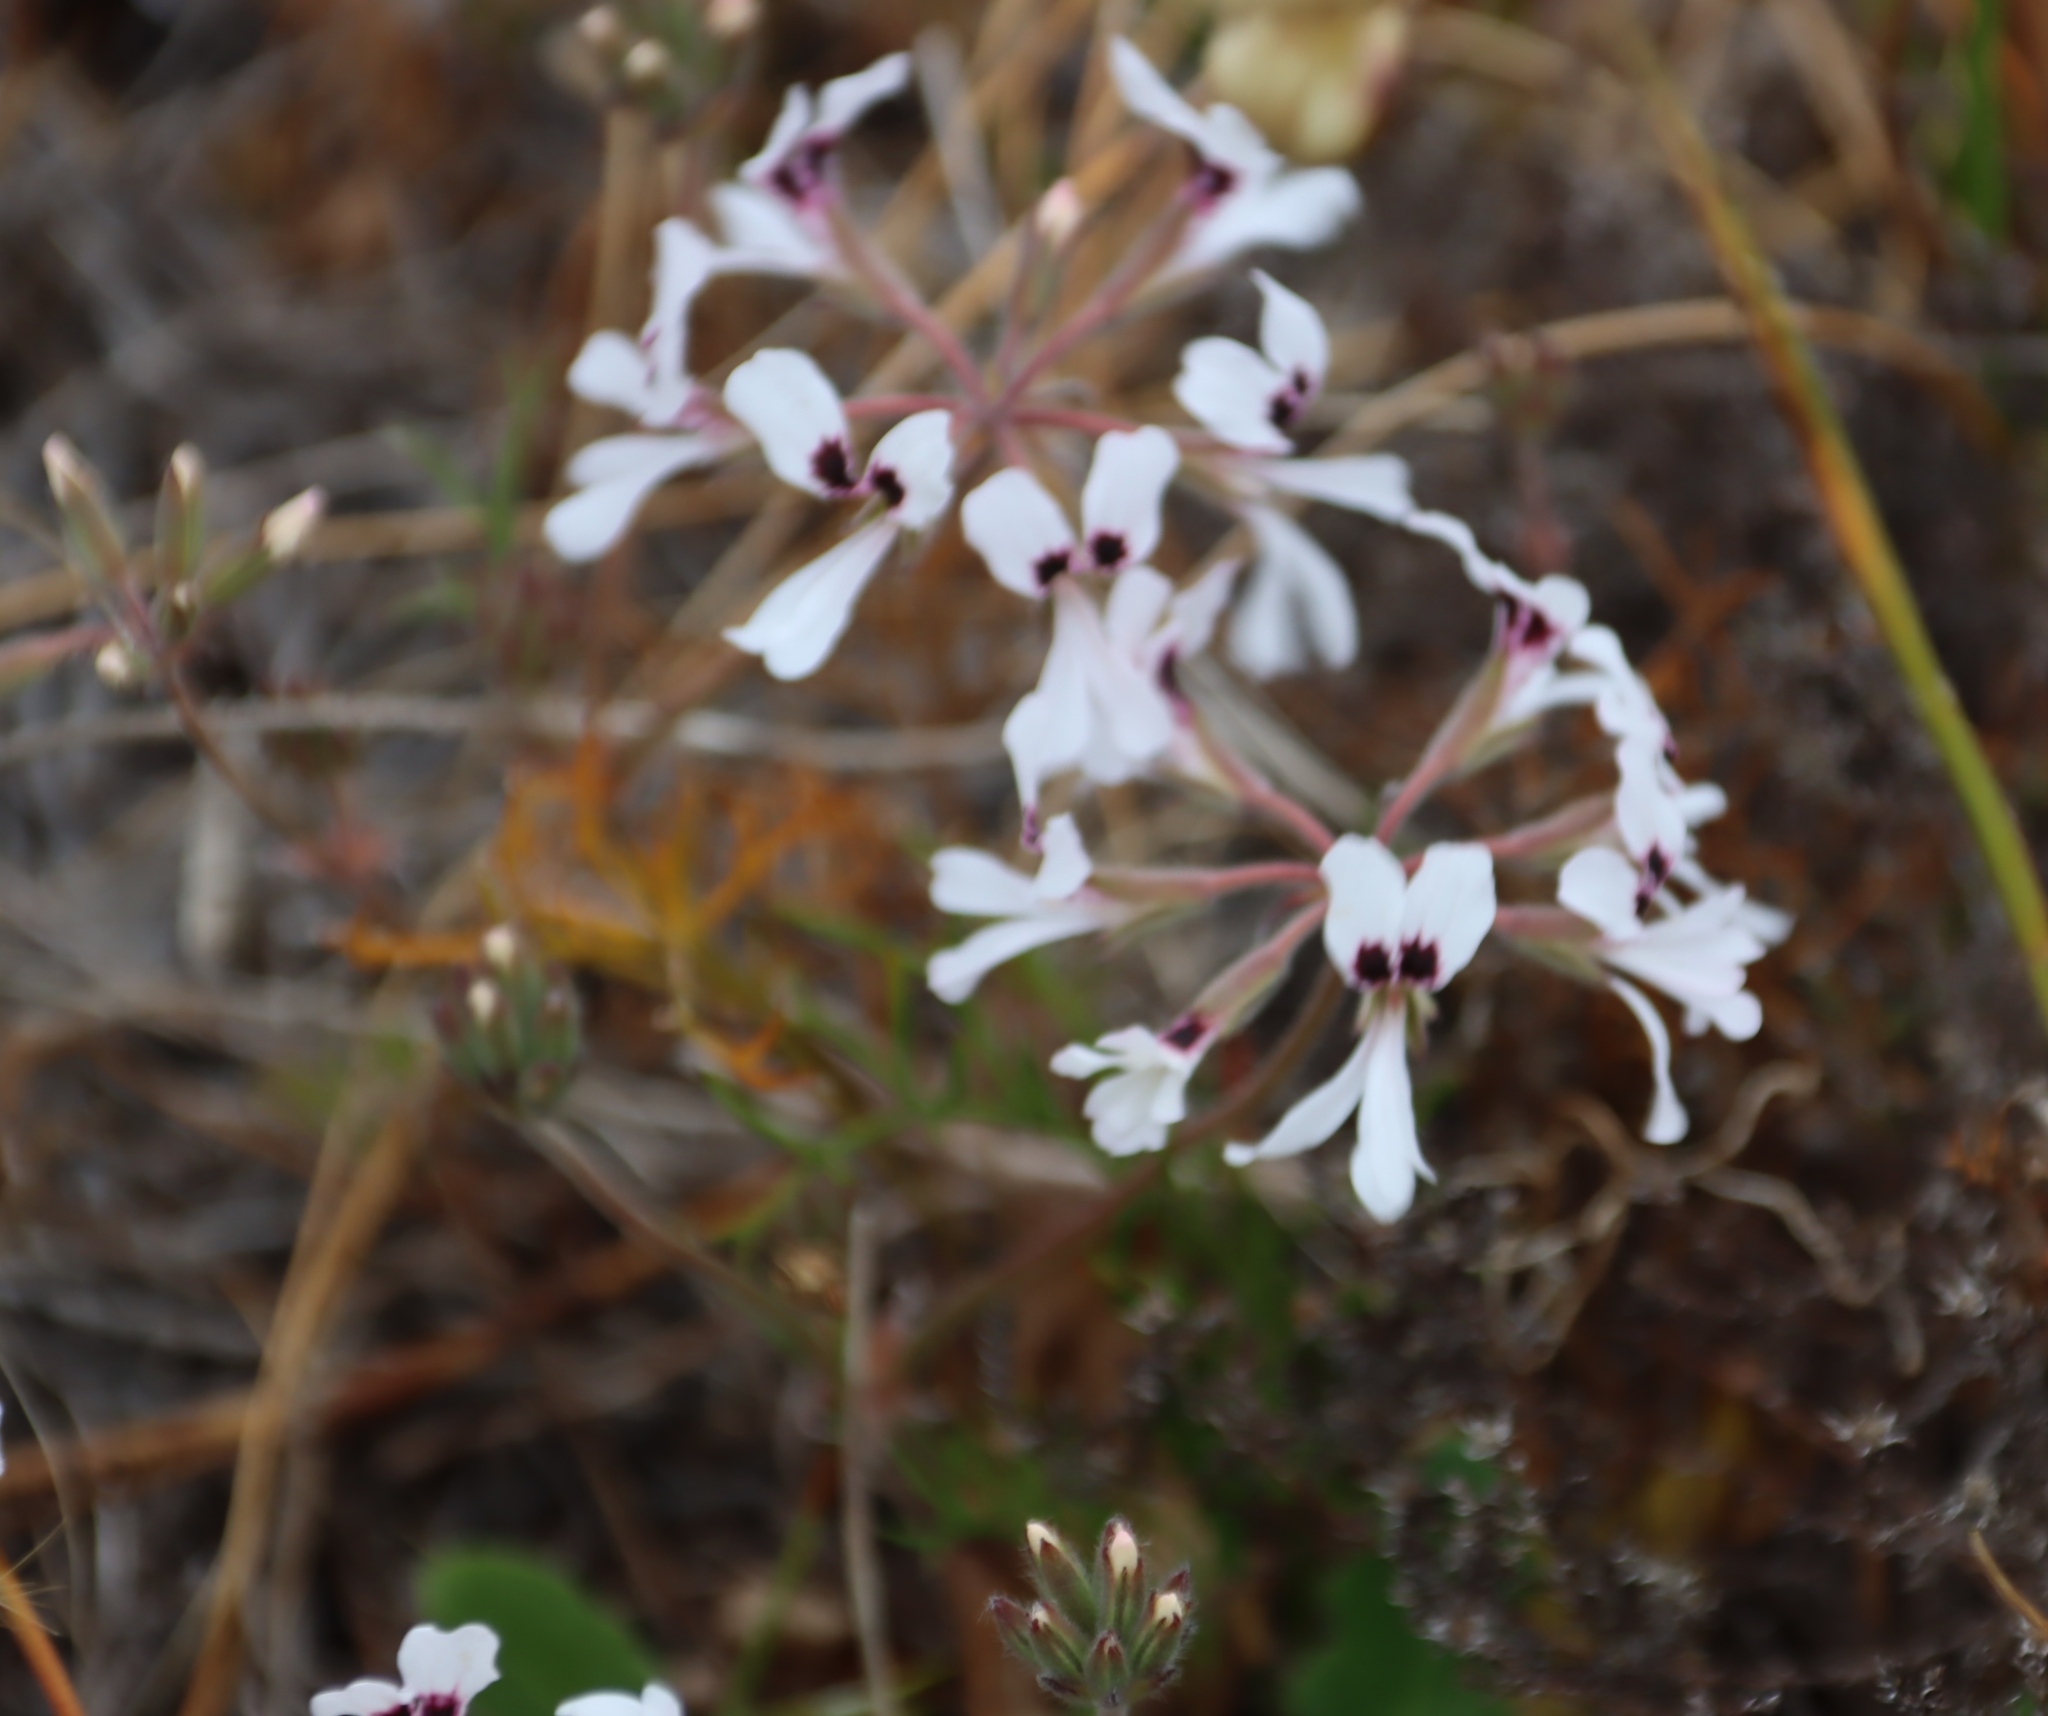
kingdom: Plantae
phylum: Tracheophyta
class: Magnoliopsida
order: Geraniales
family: Geraniaceae
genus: Pelargonium
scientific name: Pelargonium psammophilum
